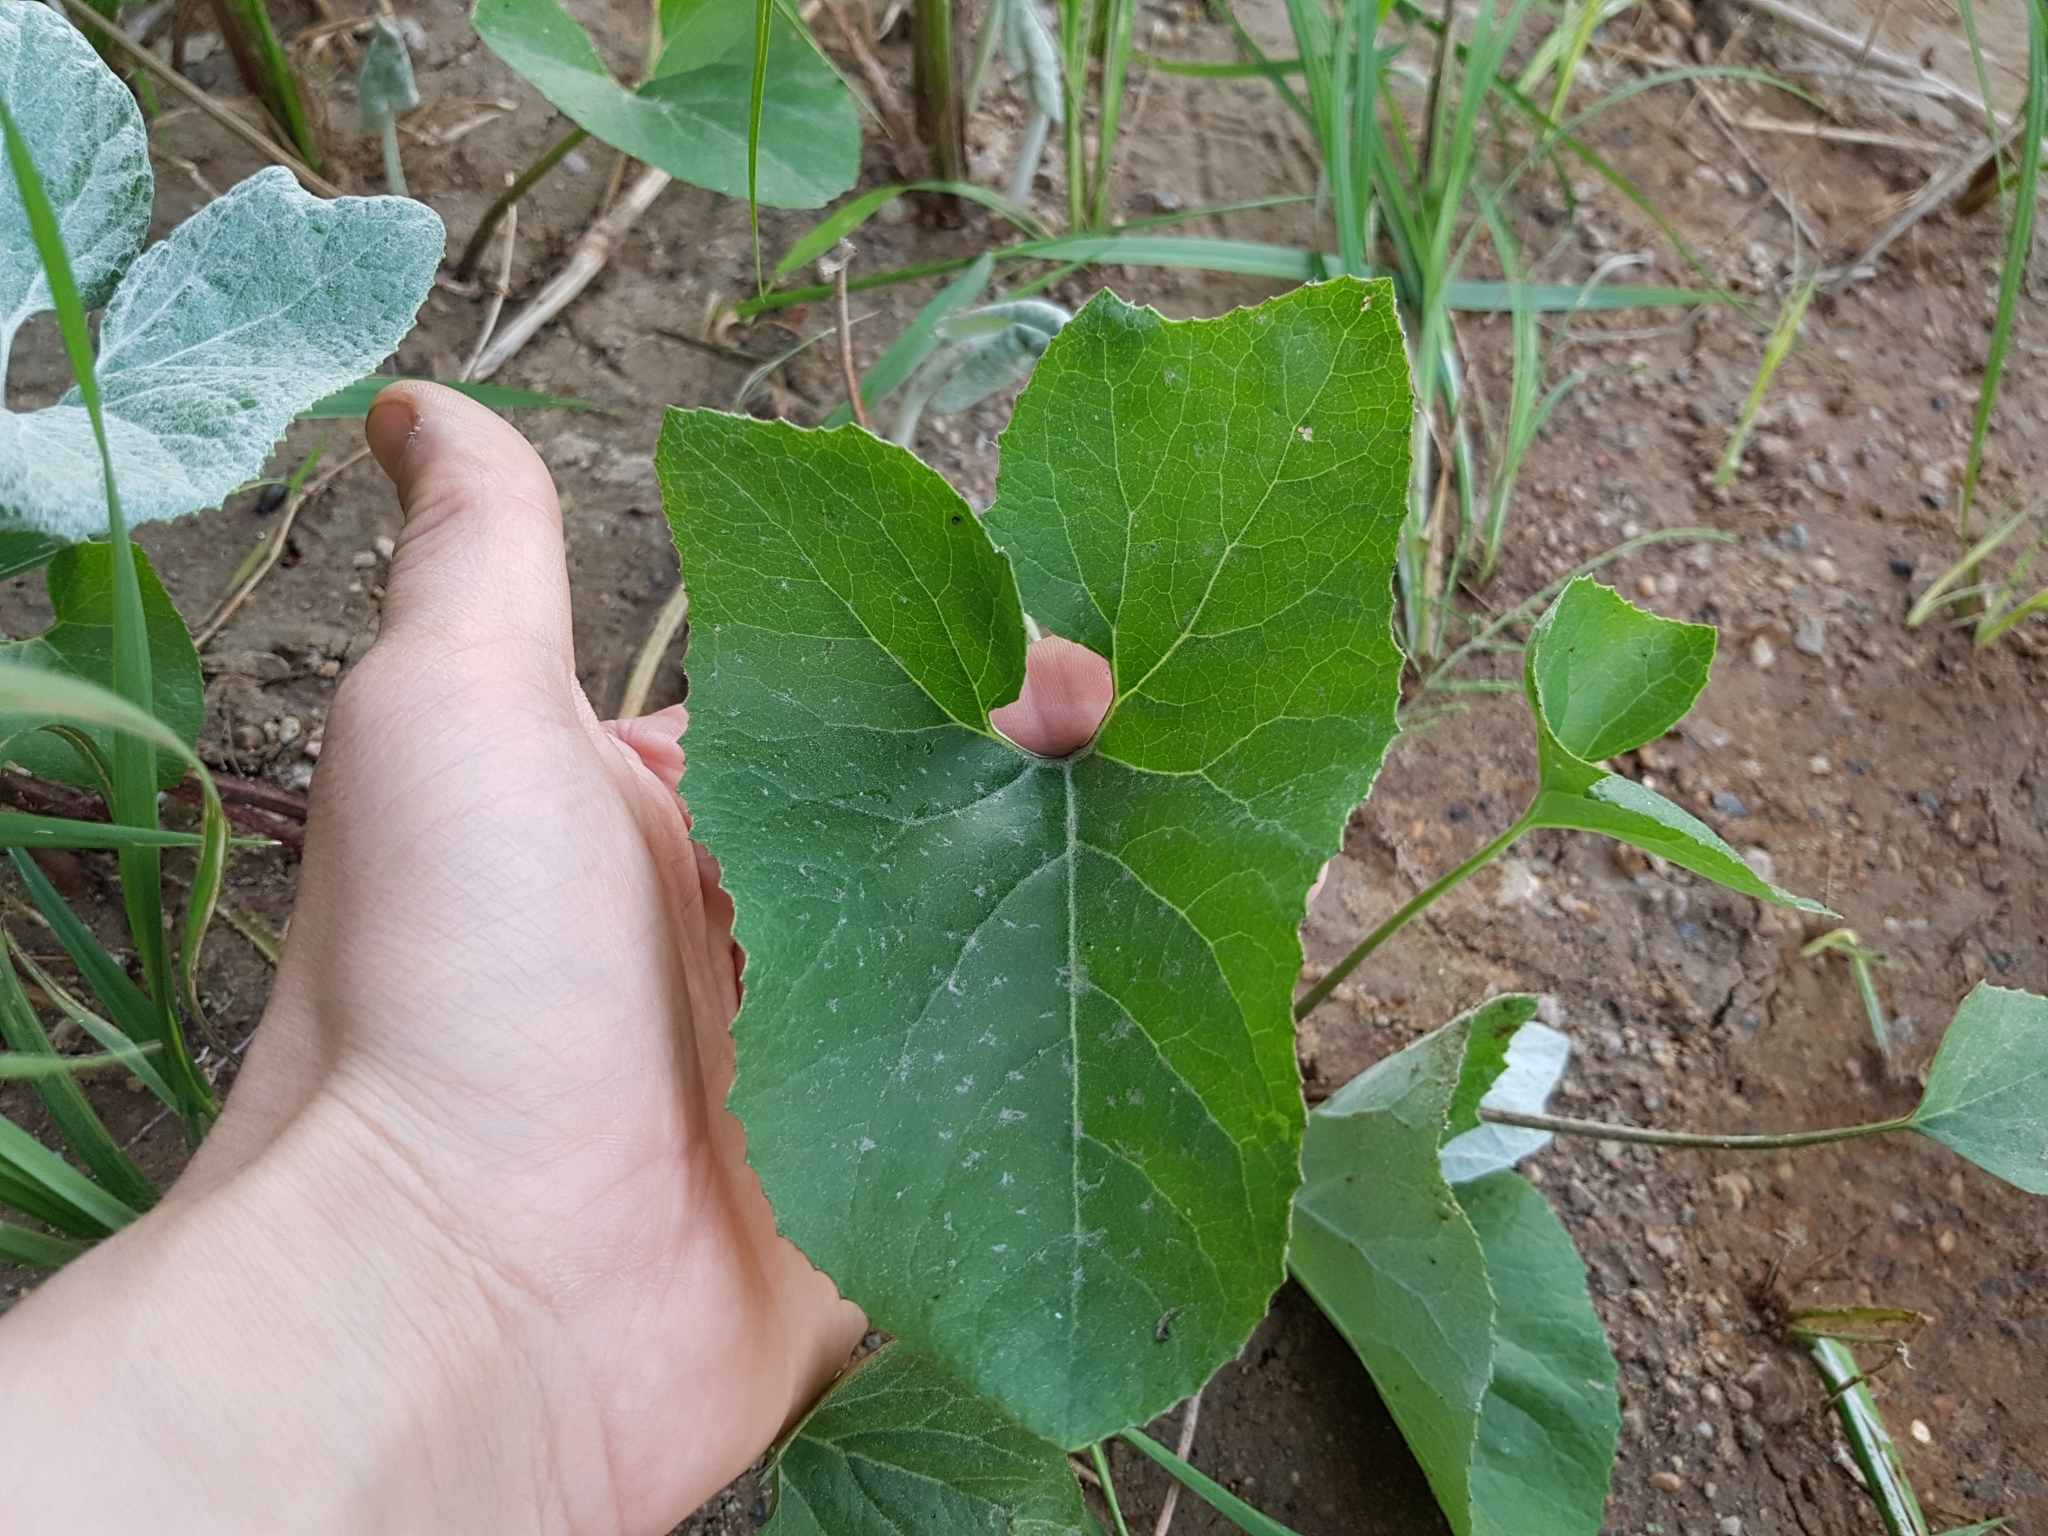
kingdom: Plantae
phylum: Tracheophyta
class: Magnoliopsida
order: Asterales
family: Asteraceae
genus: Petasites
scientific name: Petasites spurius
